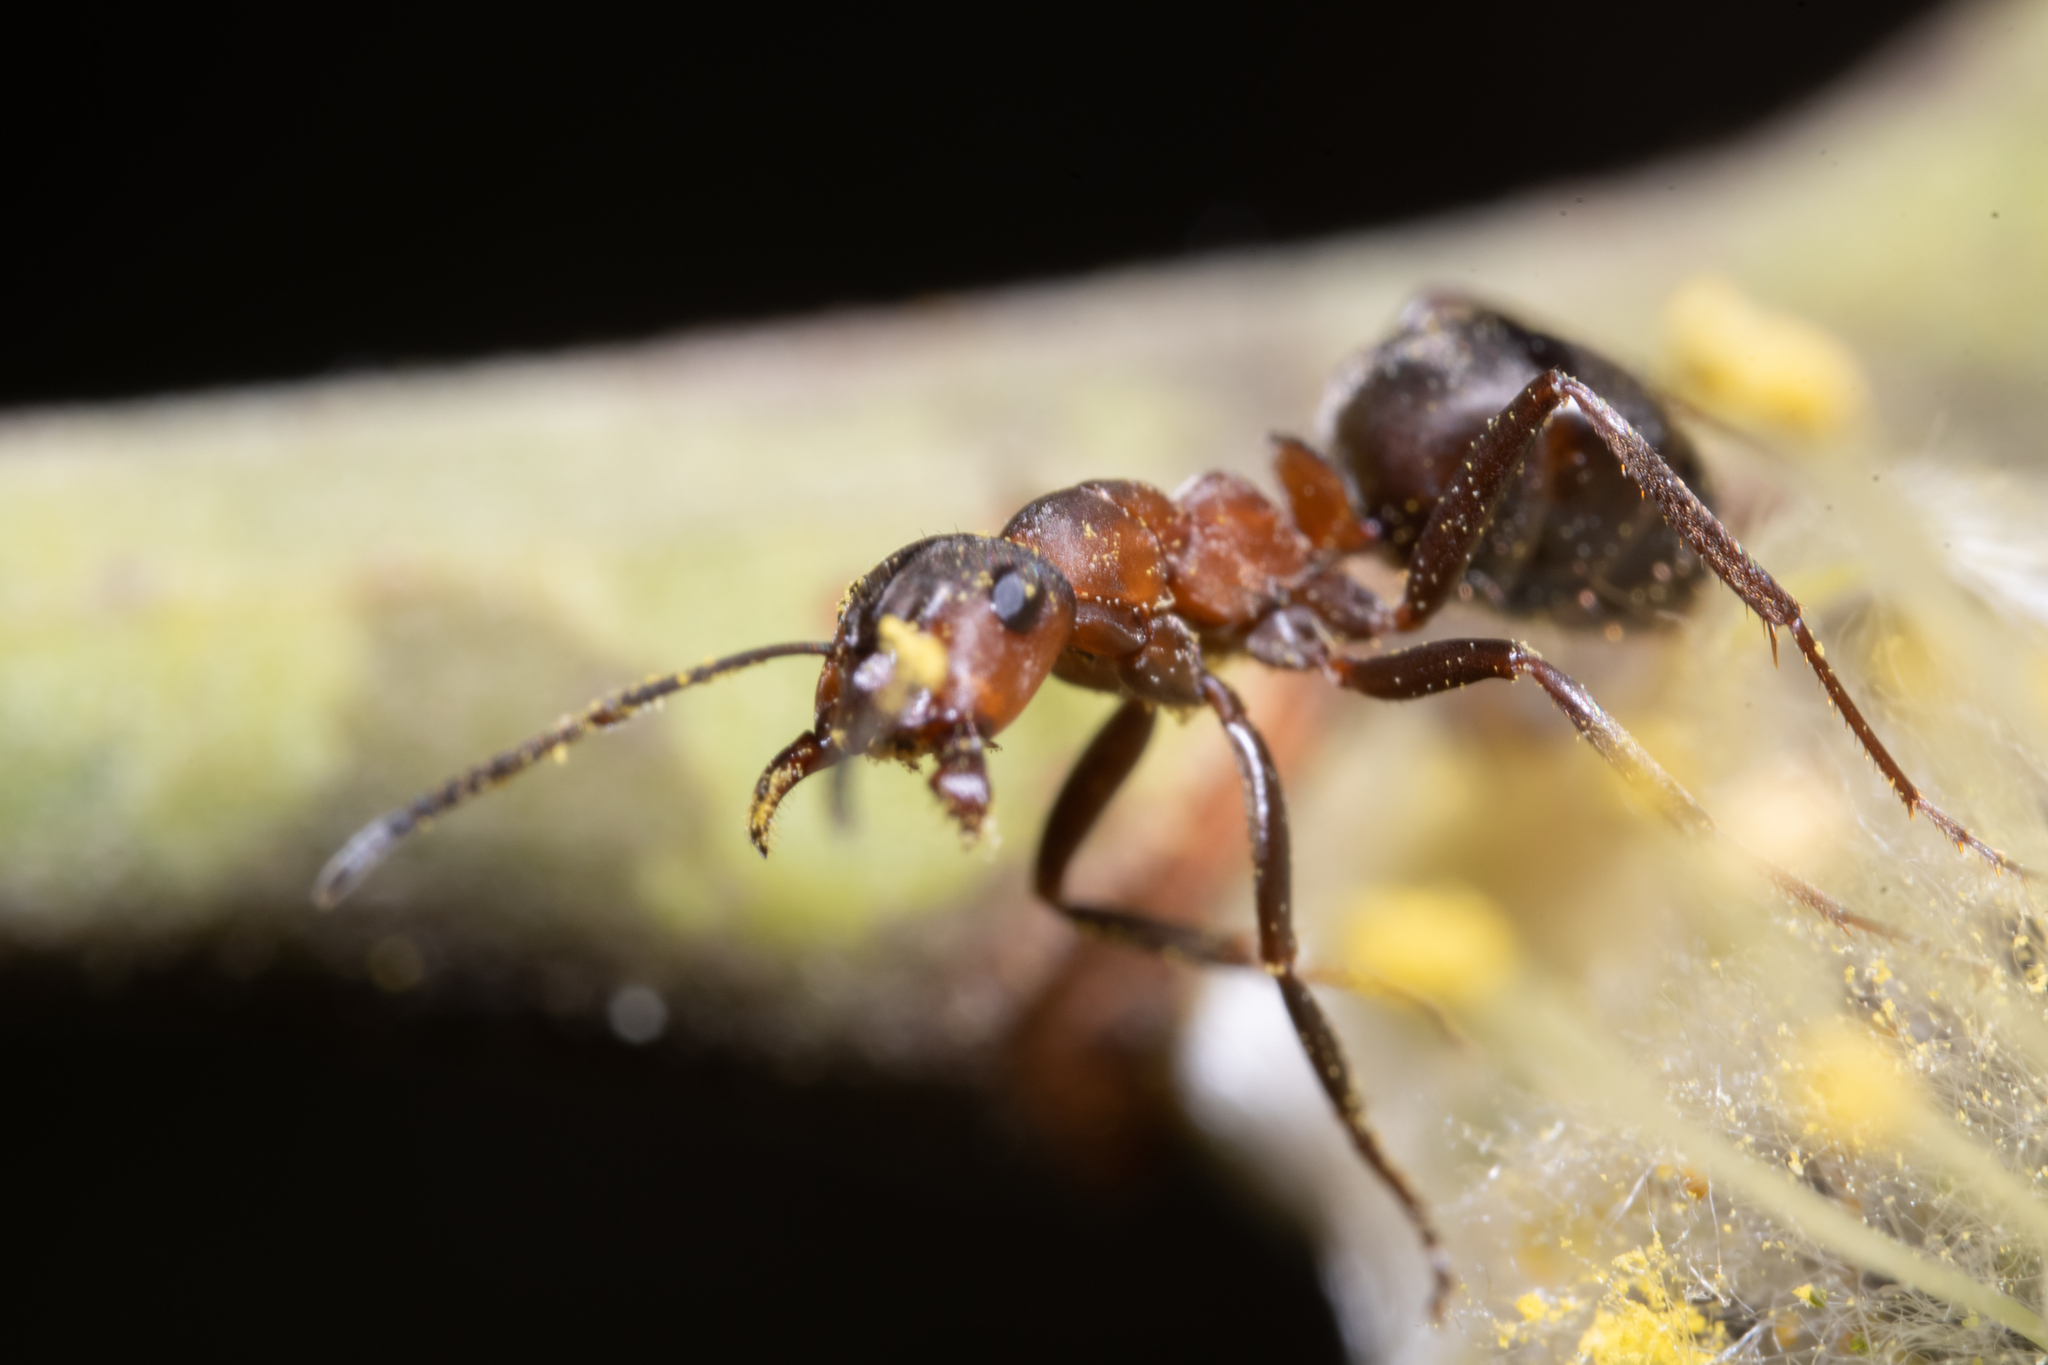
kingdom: Animalia
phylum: Arthropoda
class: Insecta
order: Hymenoptera
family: Formicidae
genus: Formica
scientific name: Formica
